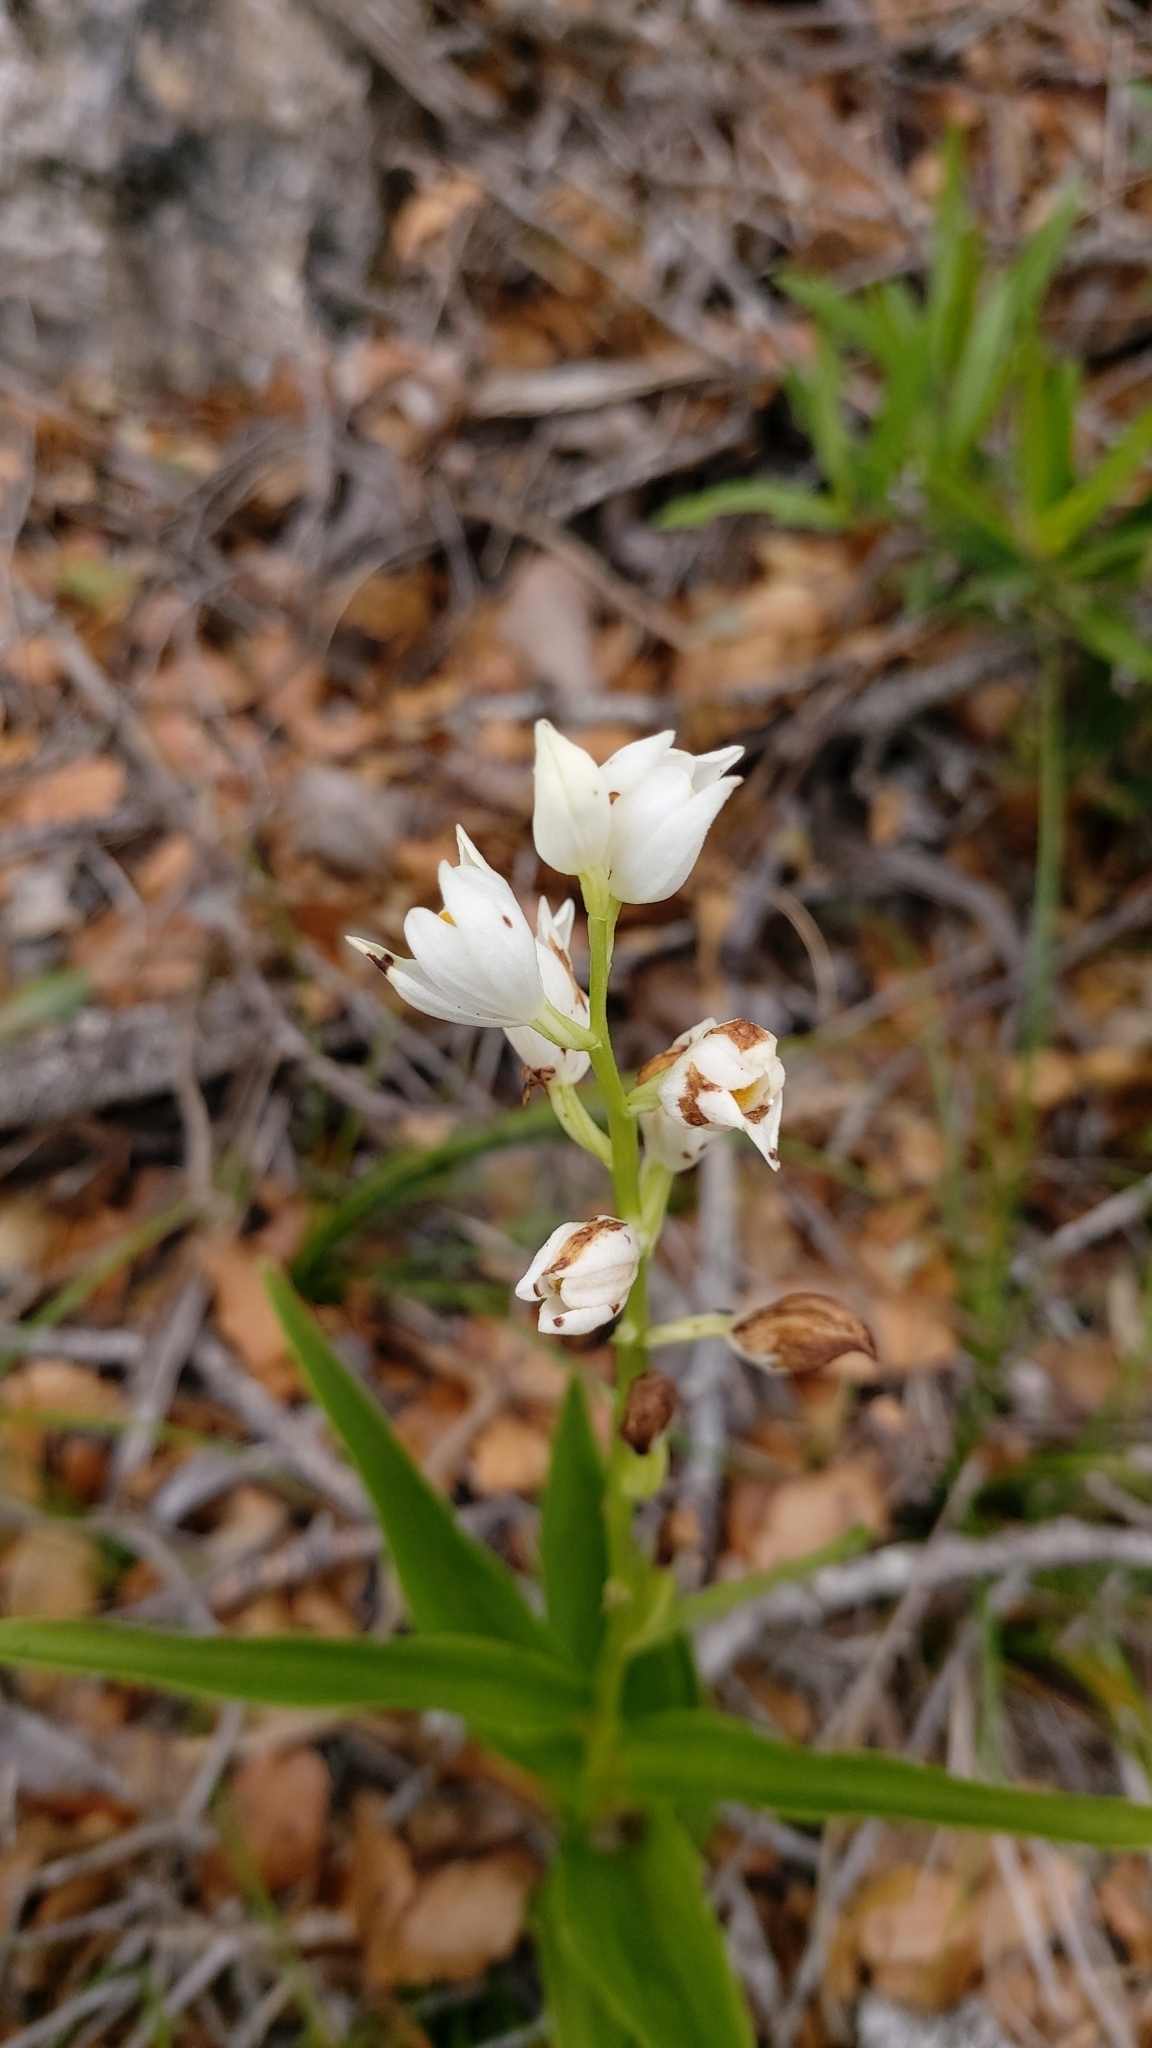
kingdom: Plantae
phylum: Tracheophyta
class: Liliopsida
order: Asparagales
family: Orchidaceae
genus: Cephalanthera
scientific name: Cephalanthera longifolia
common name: Narrow-leaved helleborine
